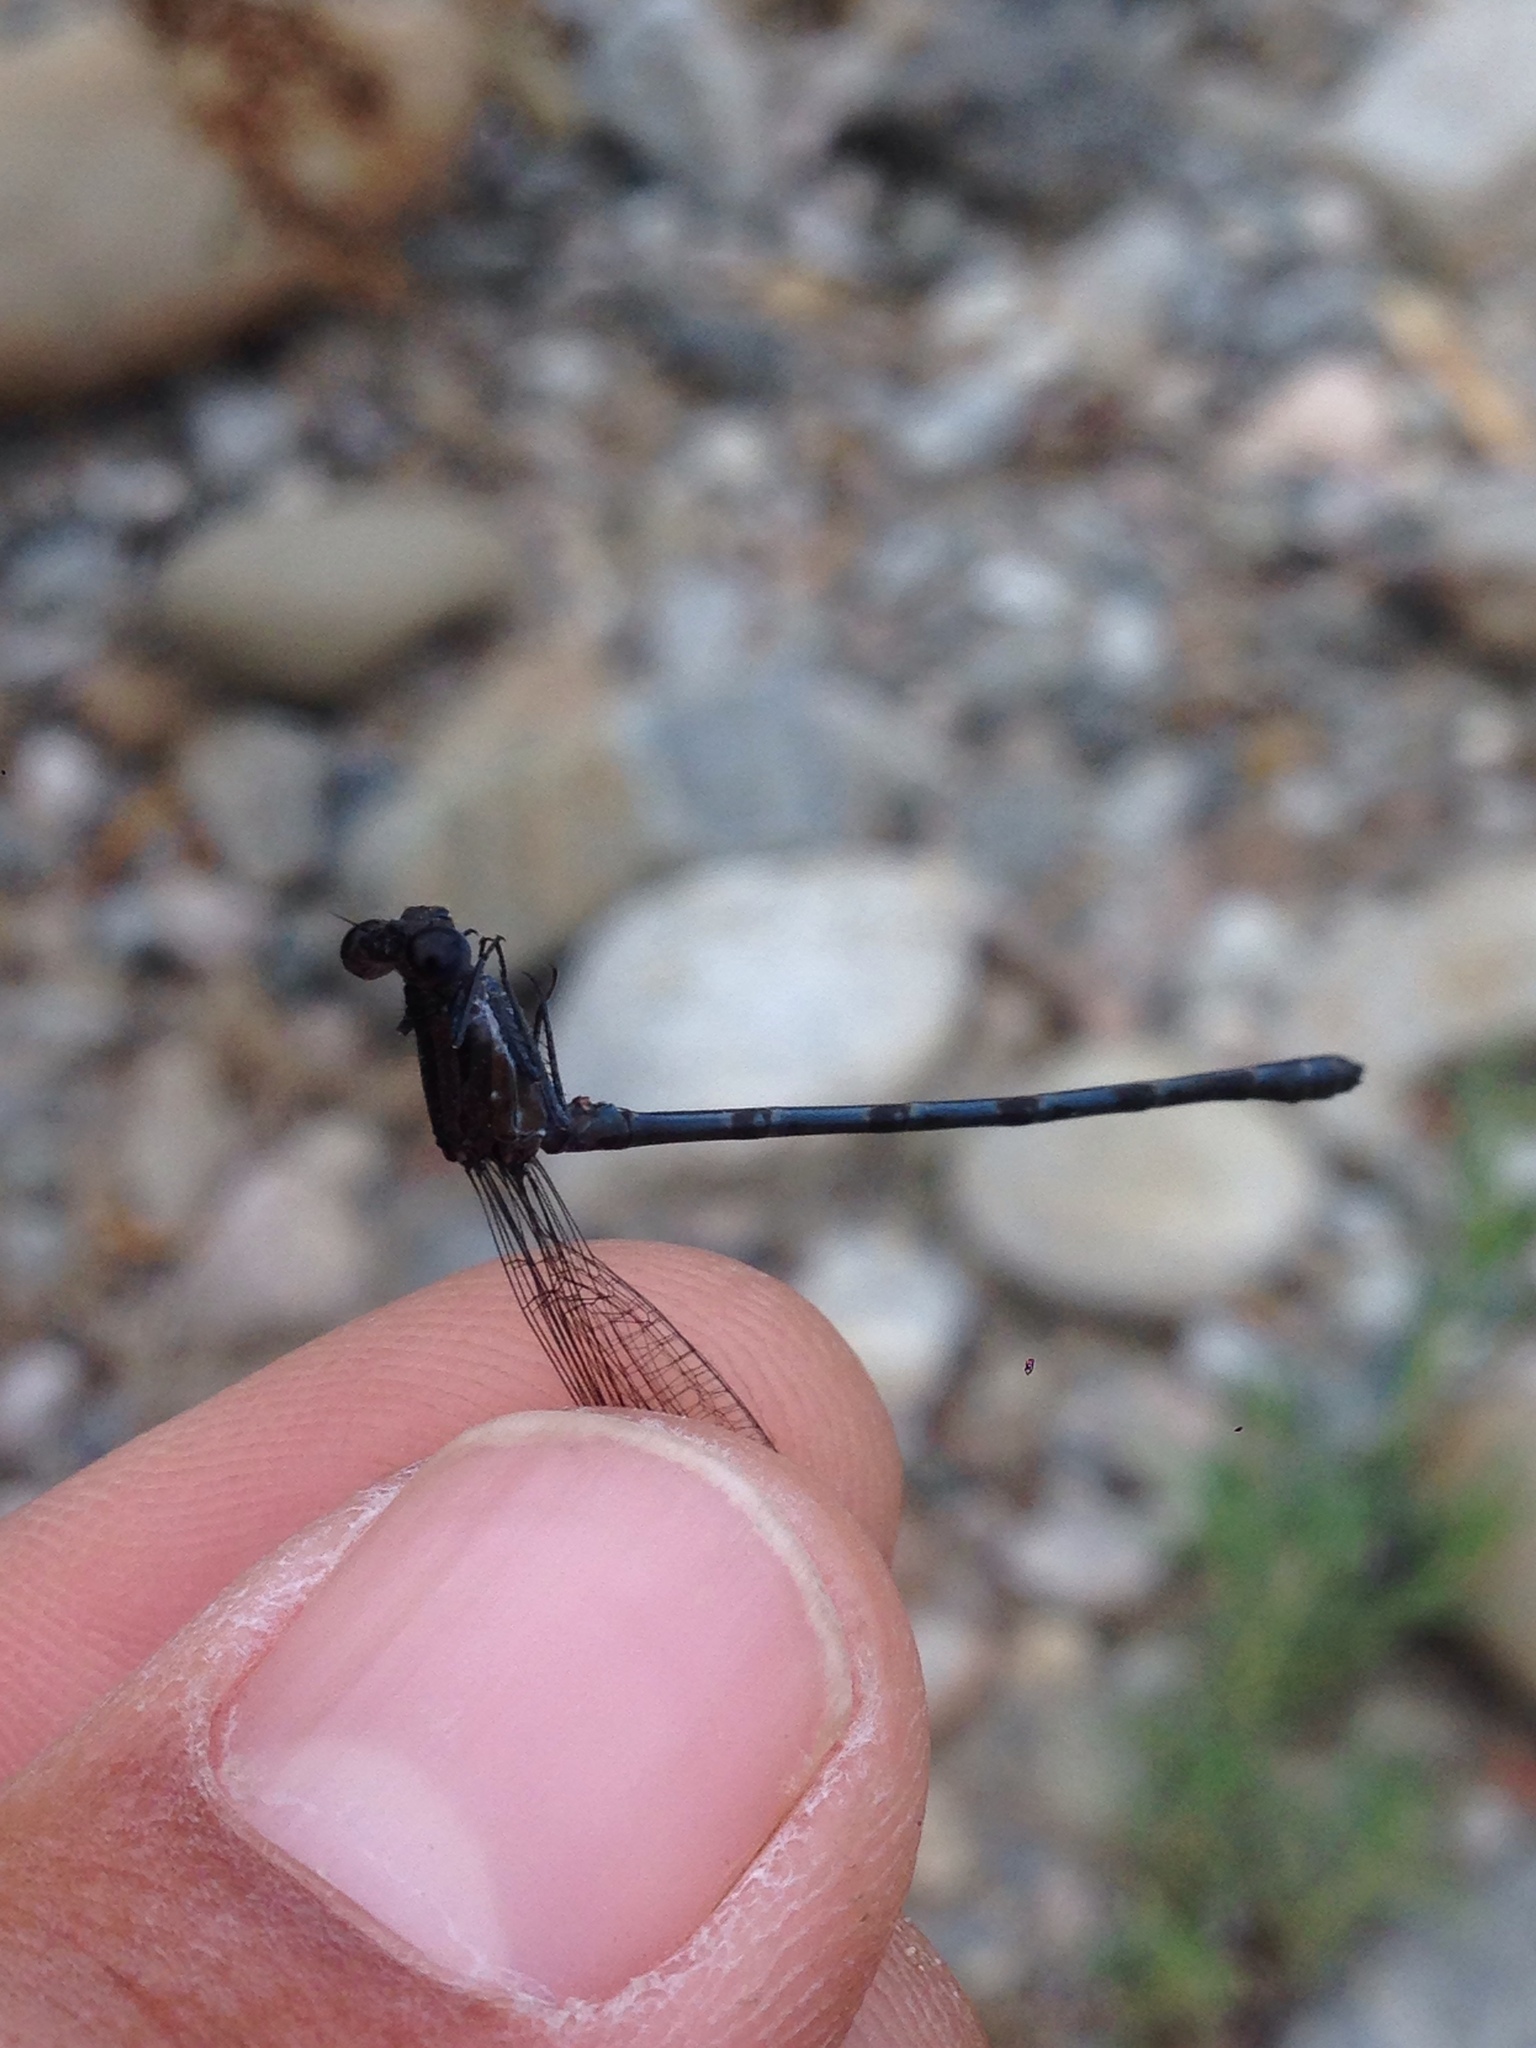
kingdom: Animalia
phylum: Arthropoda
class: Insecta
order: Odonata
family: Coenagrionidae
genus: Argia
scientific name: Argia vivida
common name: Vivid dancer
